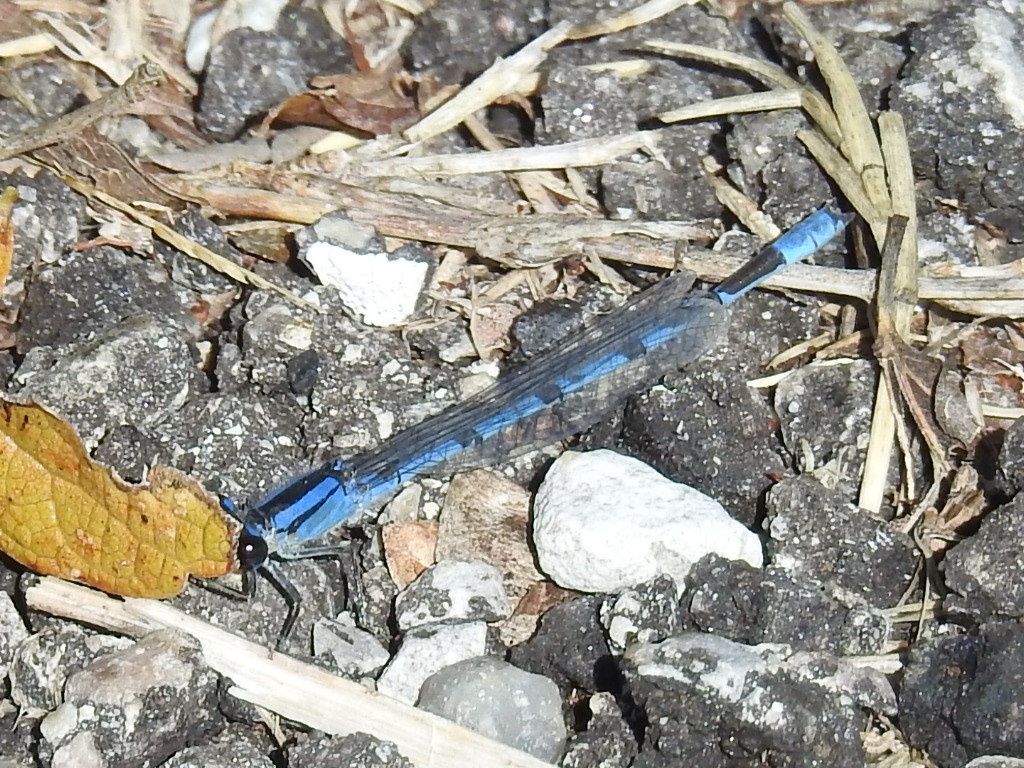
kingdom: Animalia
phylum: Arthropoda
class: Insecta
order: Odonata
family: Coenagrionidae
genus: Enallagma
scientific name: Enallagma civile
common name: Damselfly
